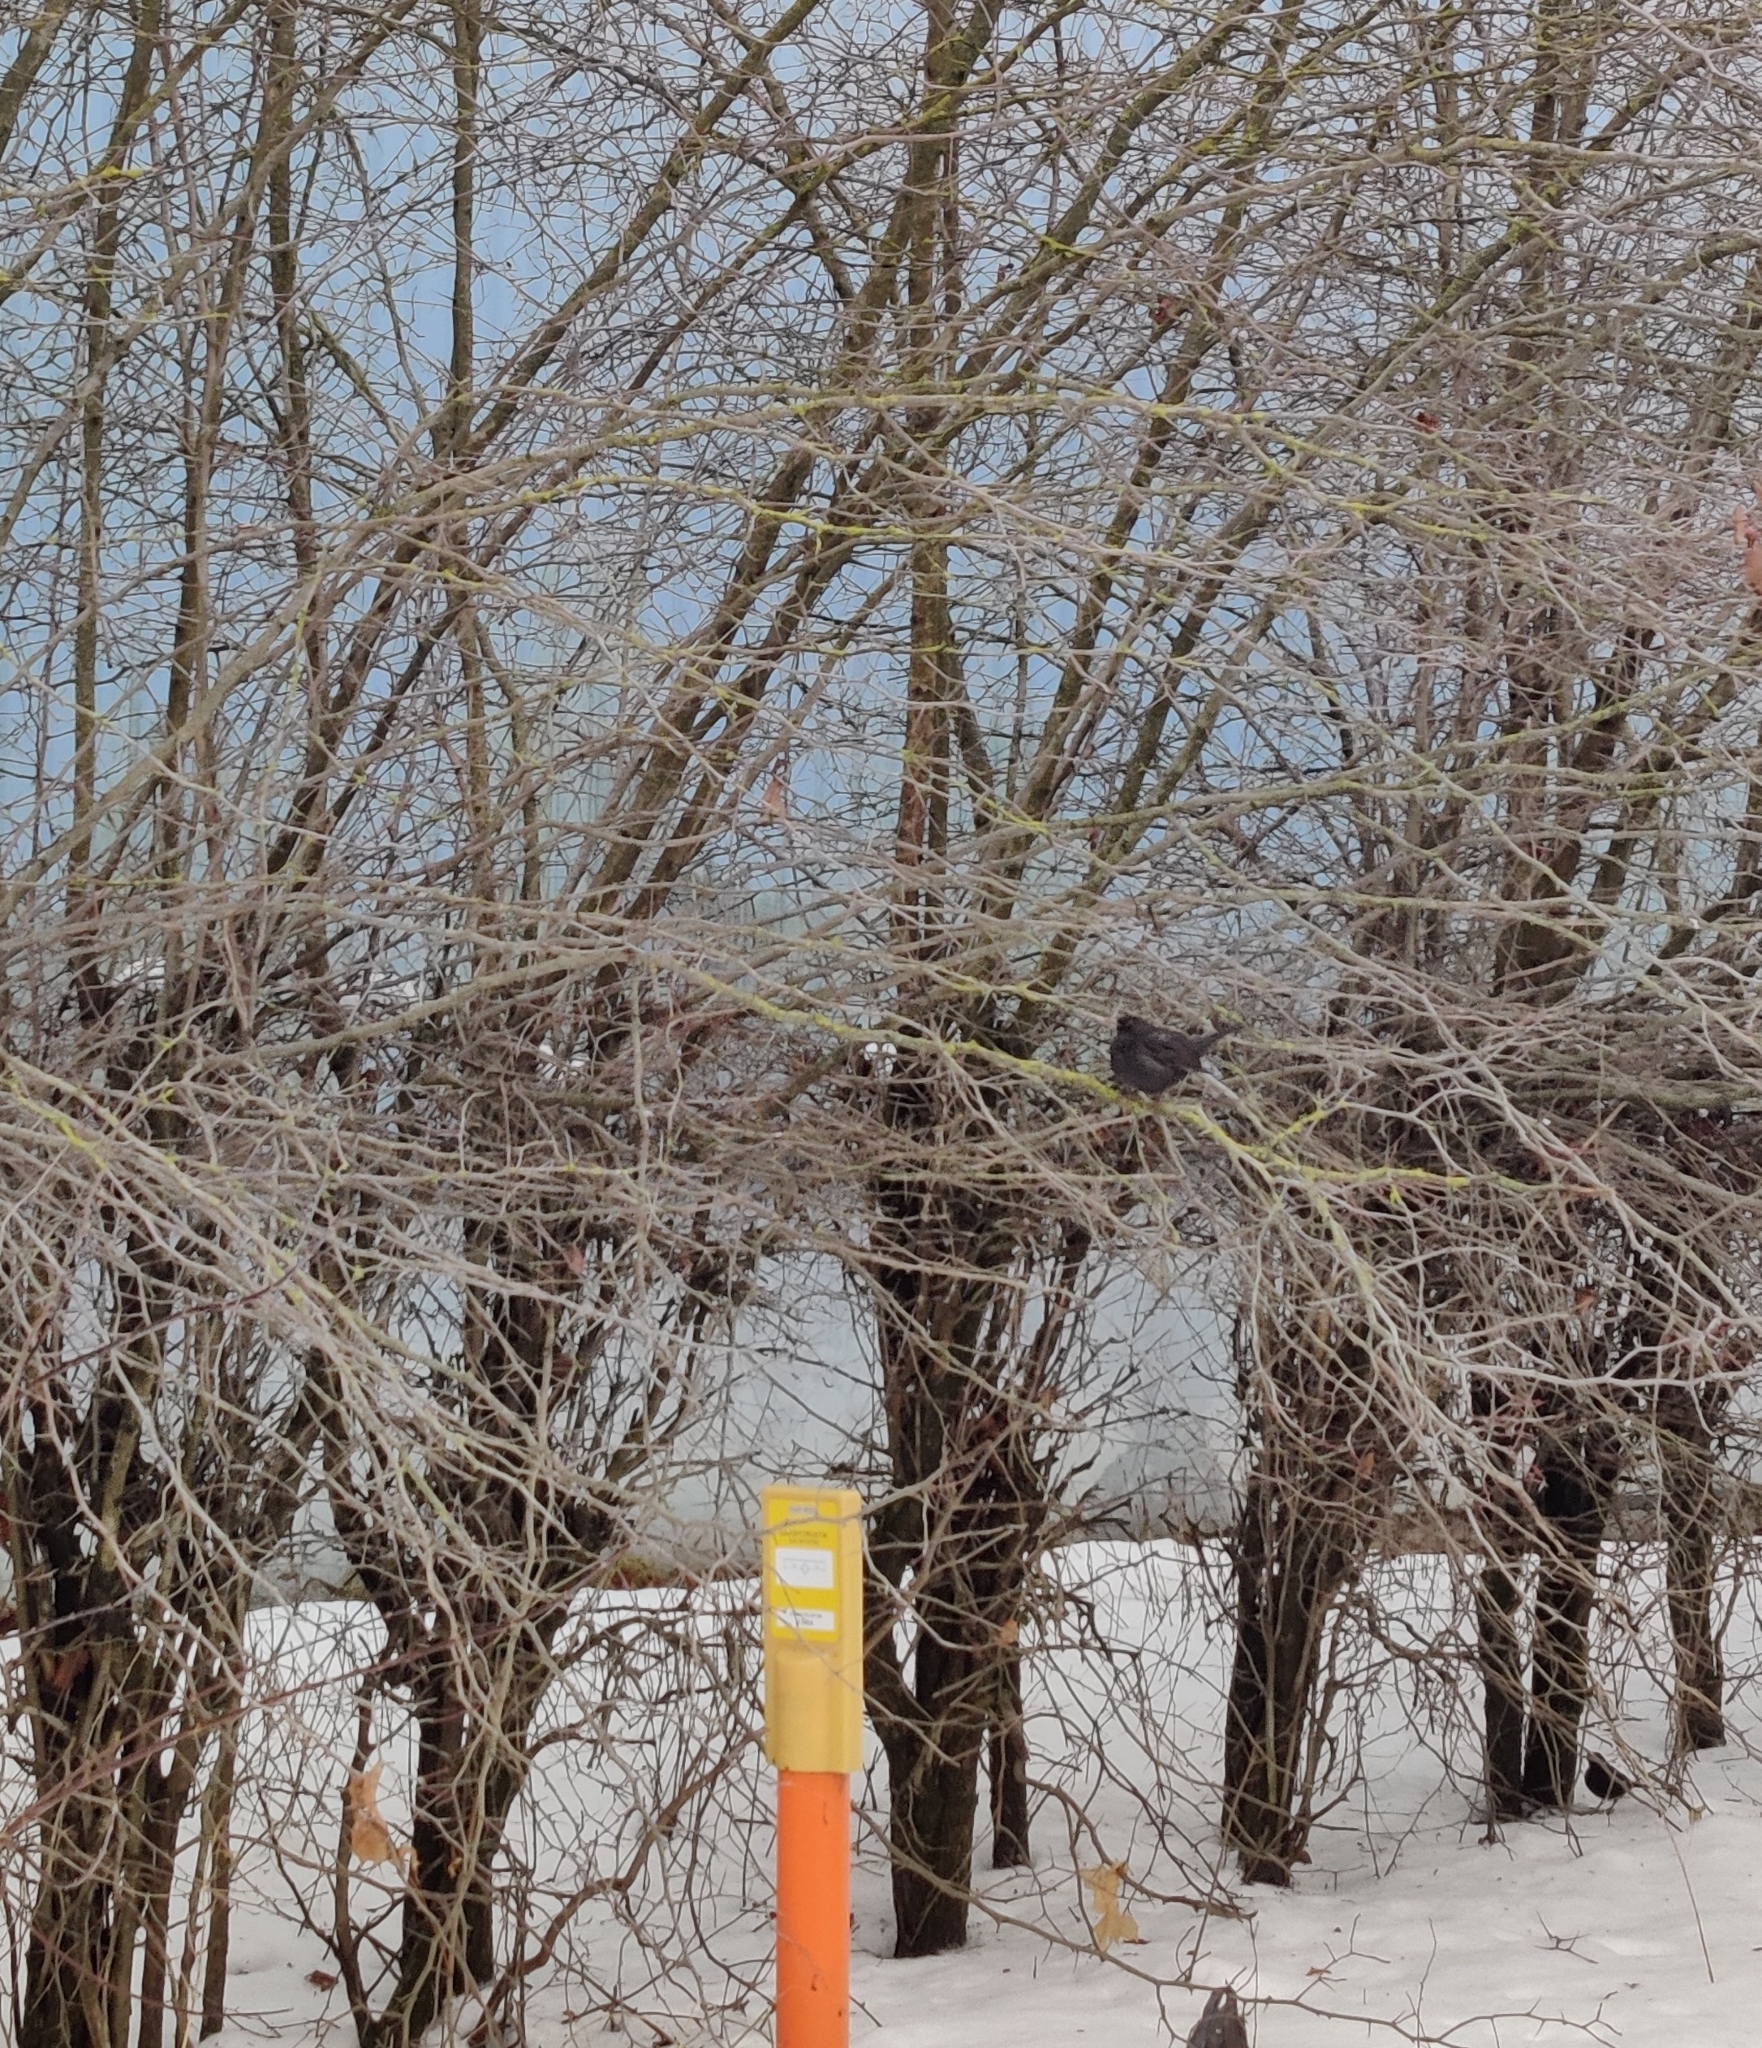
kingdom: Animalia
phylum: Chordata
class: Aves
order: Passeriformes
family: Turdidae
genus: Turdus
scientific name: Turdus merula
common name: Common blackbird
